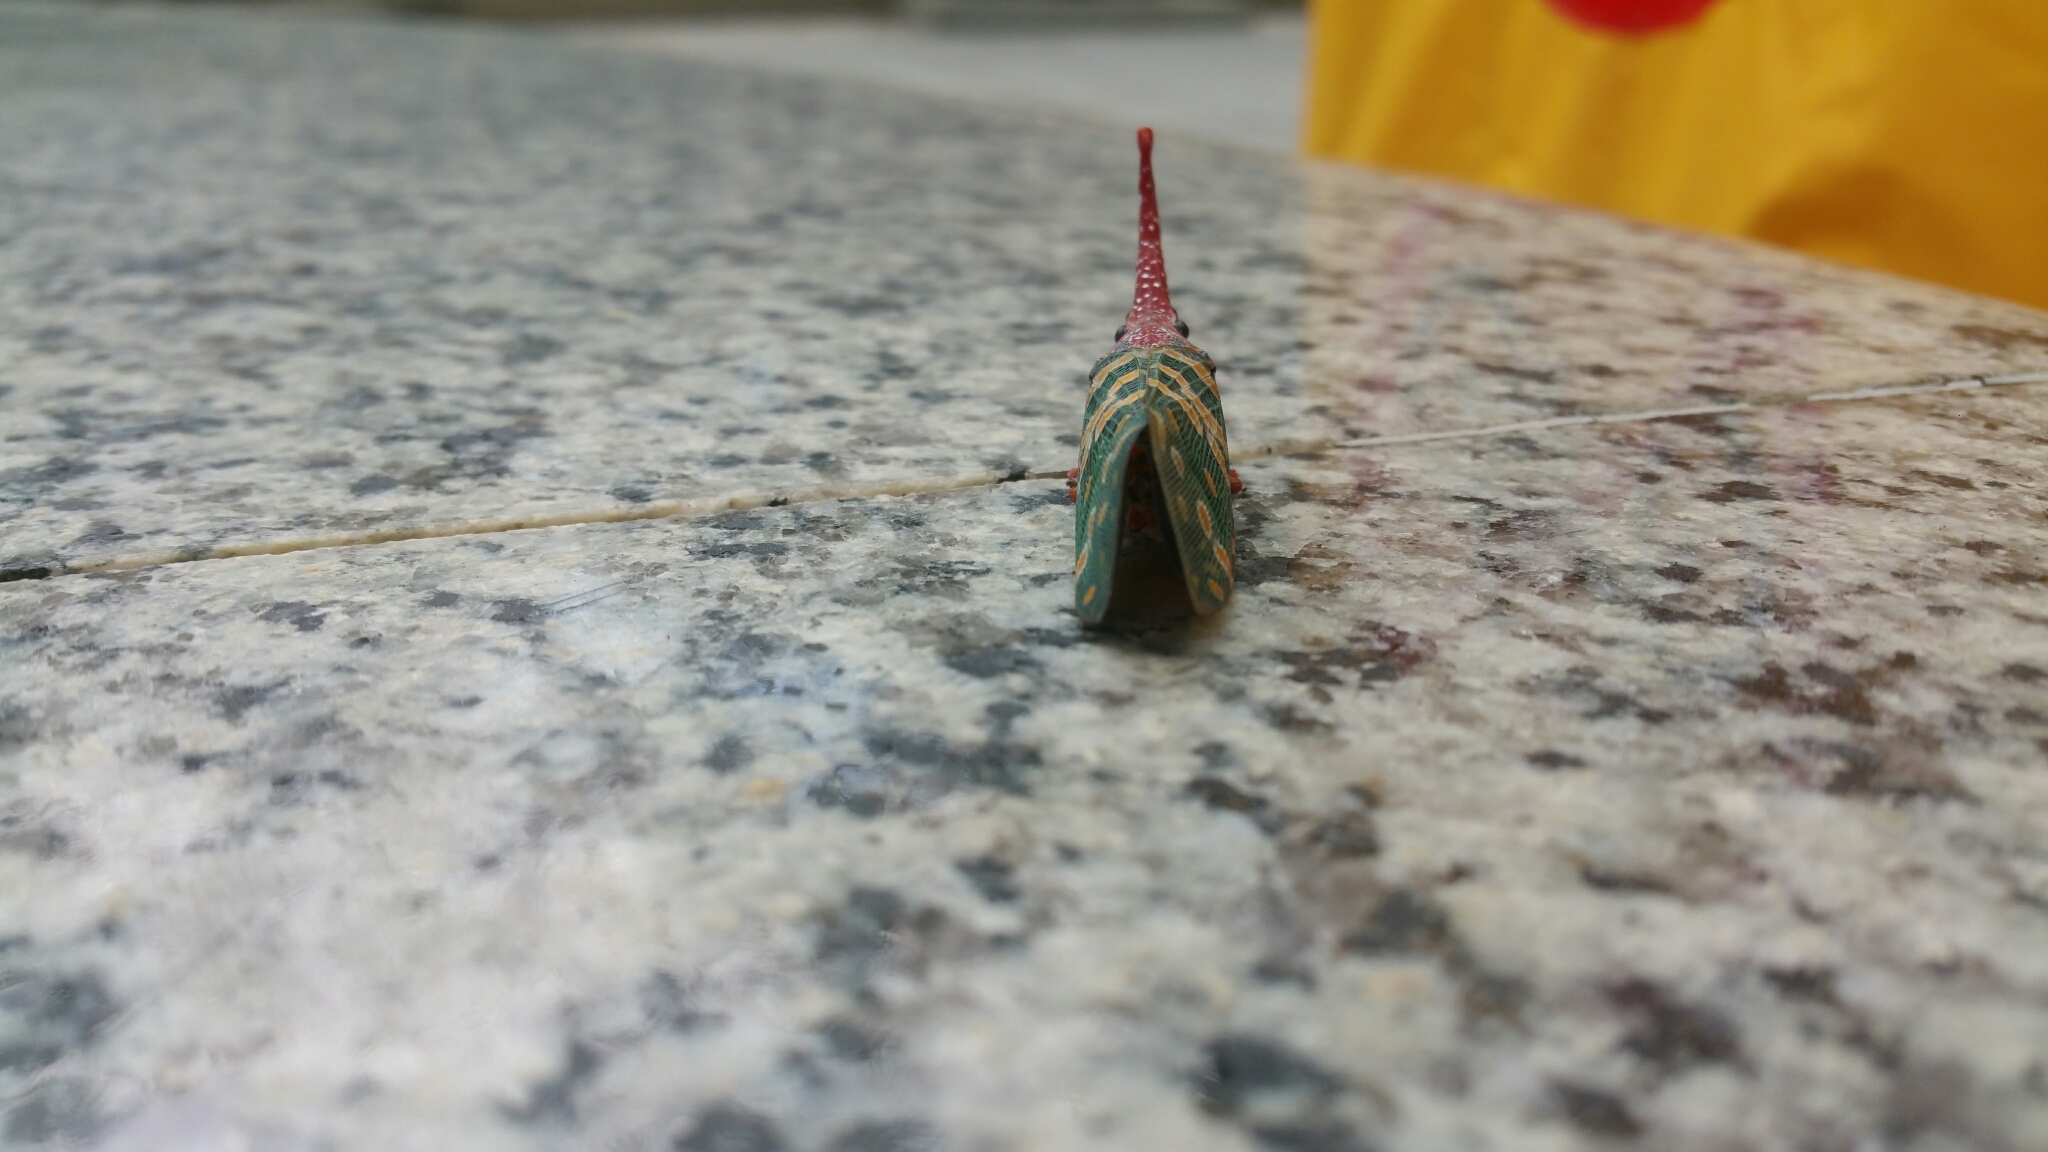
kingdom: Animalia
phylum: Arthropoda
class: Insecta
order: Hemiptera
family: Fulgoridae
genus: Pyrops
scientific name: Pyrops candelaria
